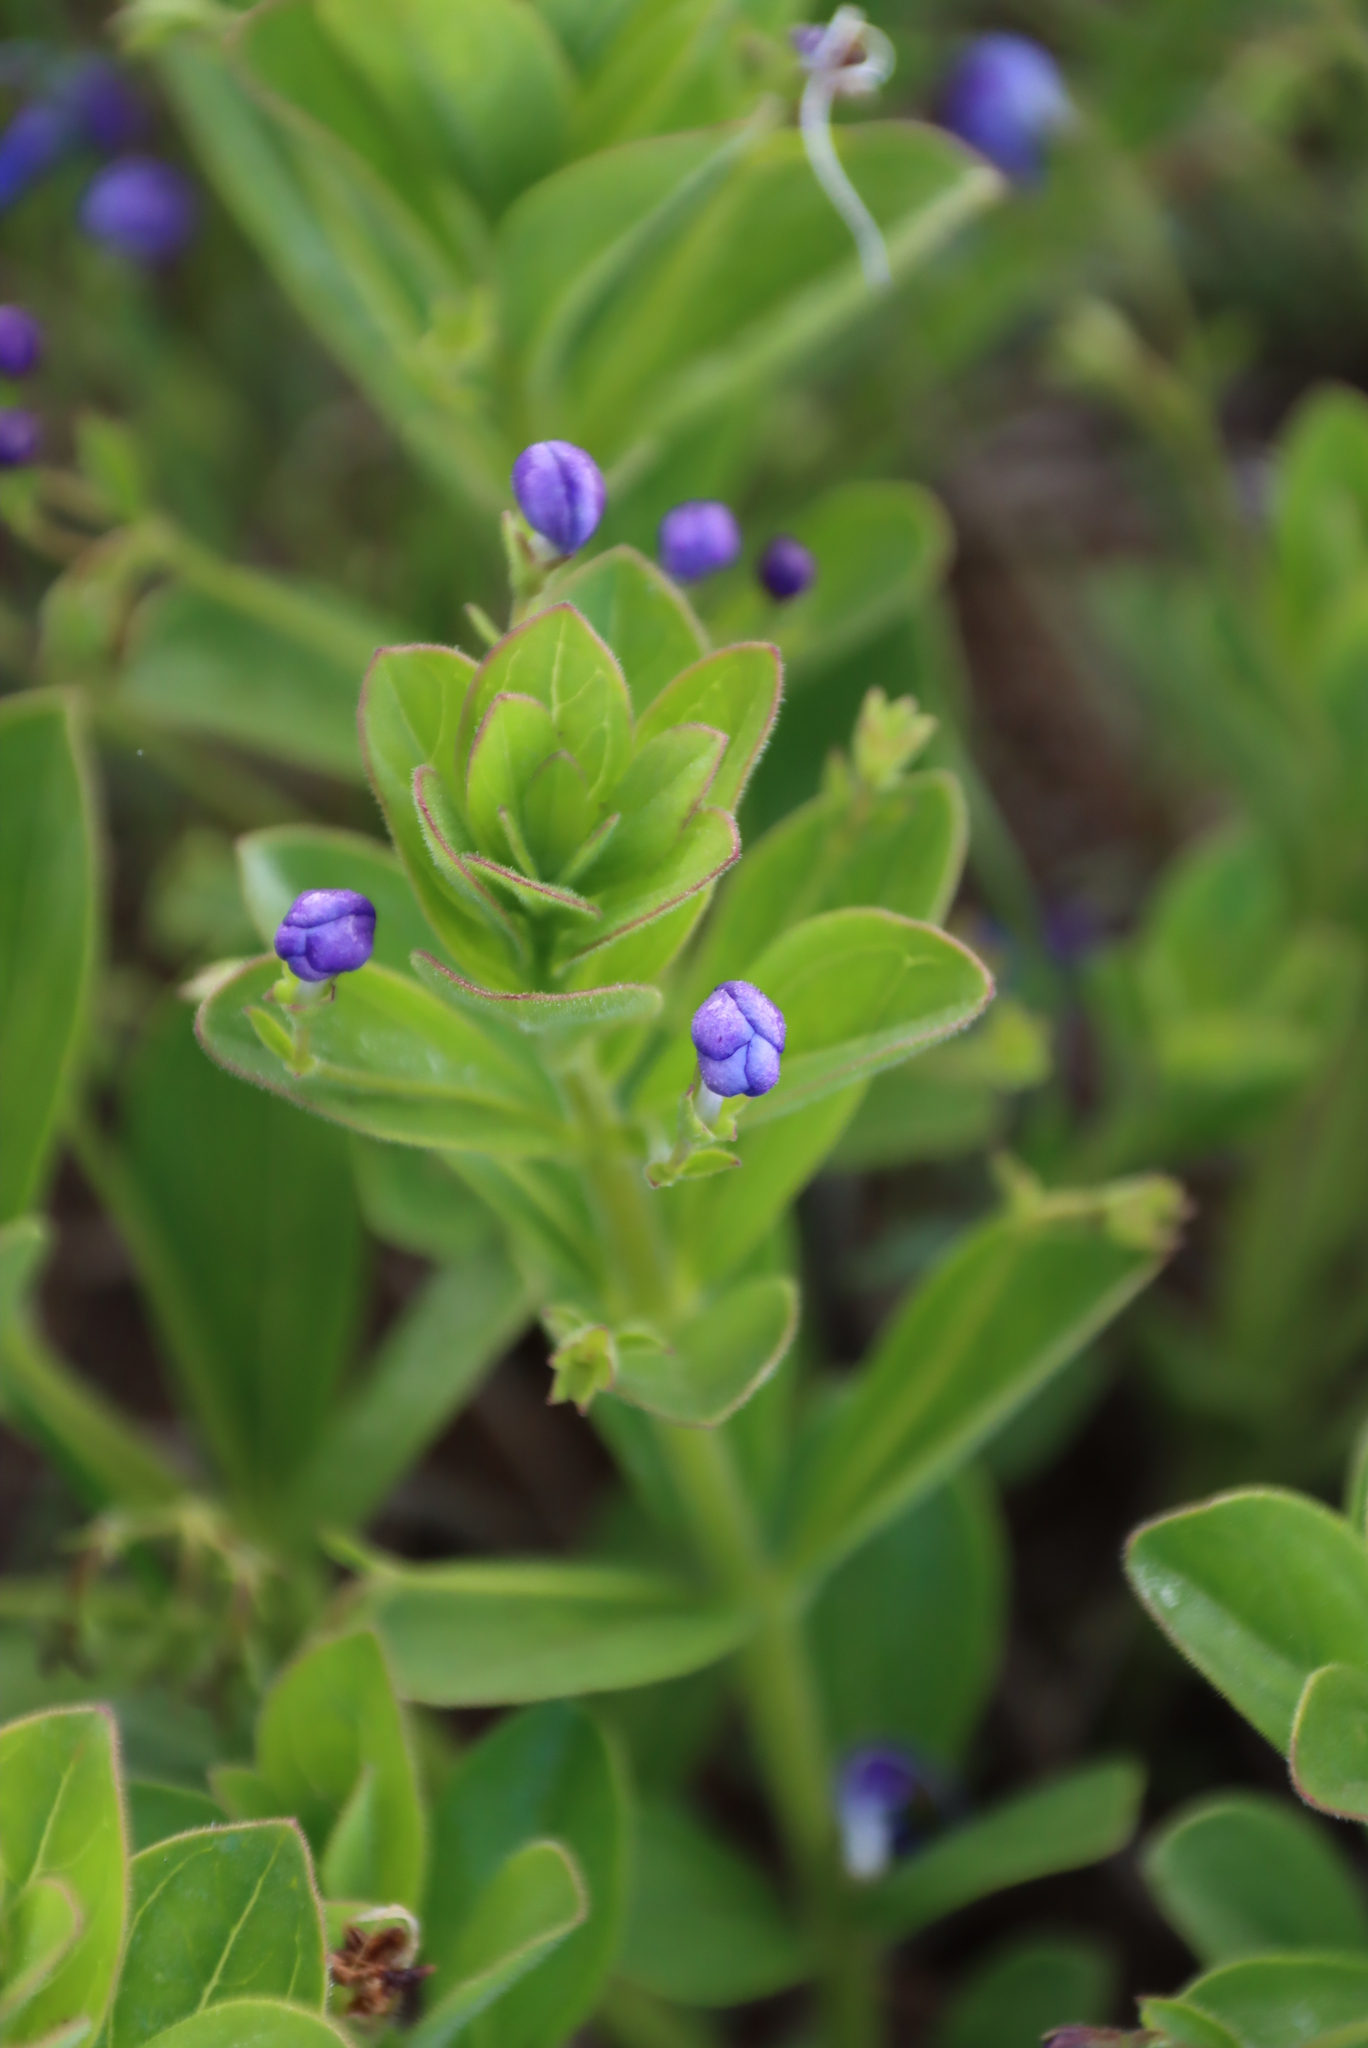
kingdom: Plantae
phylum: Tracheophyta
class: Magnoliopsida
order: Lamiales
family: Lamiaceae
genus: Rotheca
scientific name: Rotheca hirsuta
